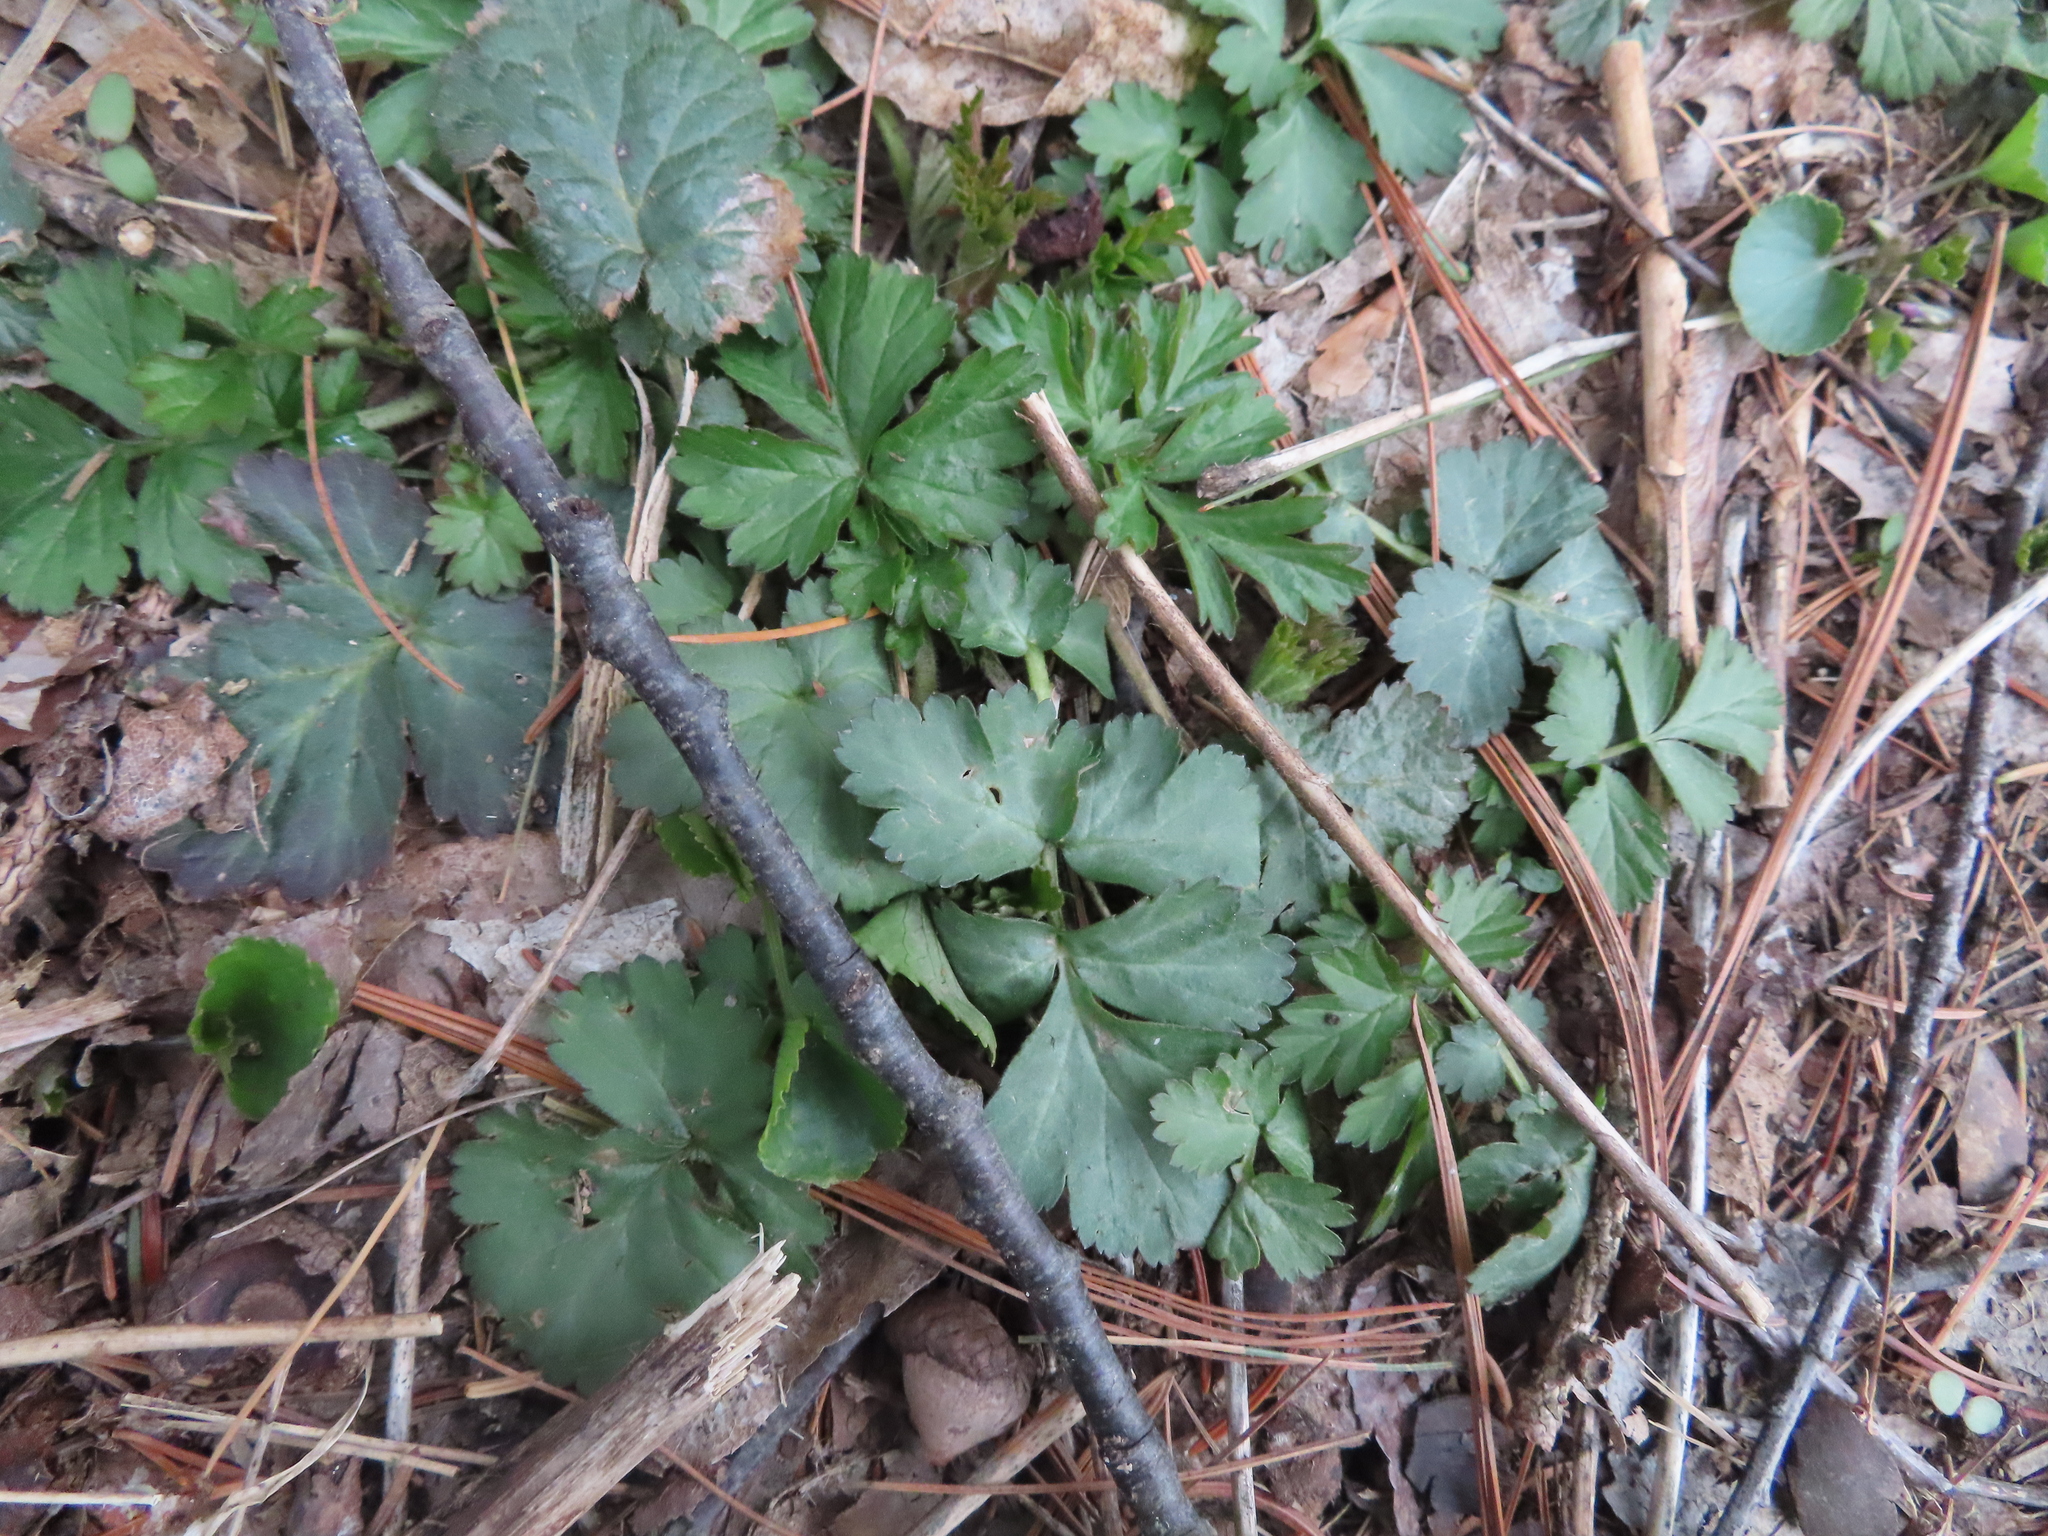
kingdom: Plantae
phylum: Tracheophyta
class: Magnoliopsida
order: Rosales
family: Rosaceae
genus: Geum
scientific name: Geum canadense
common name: White avens
